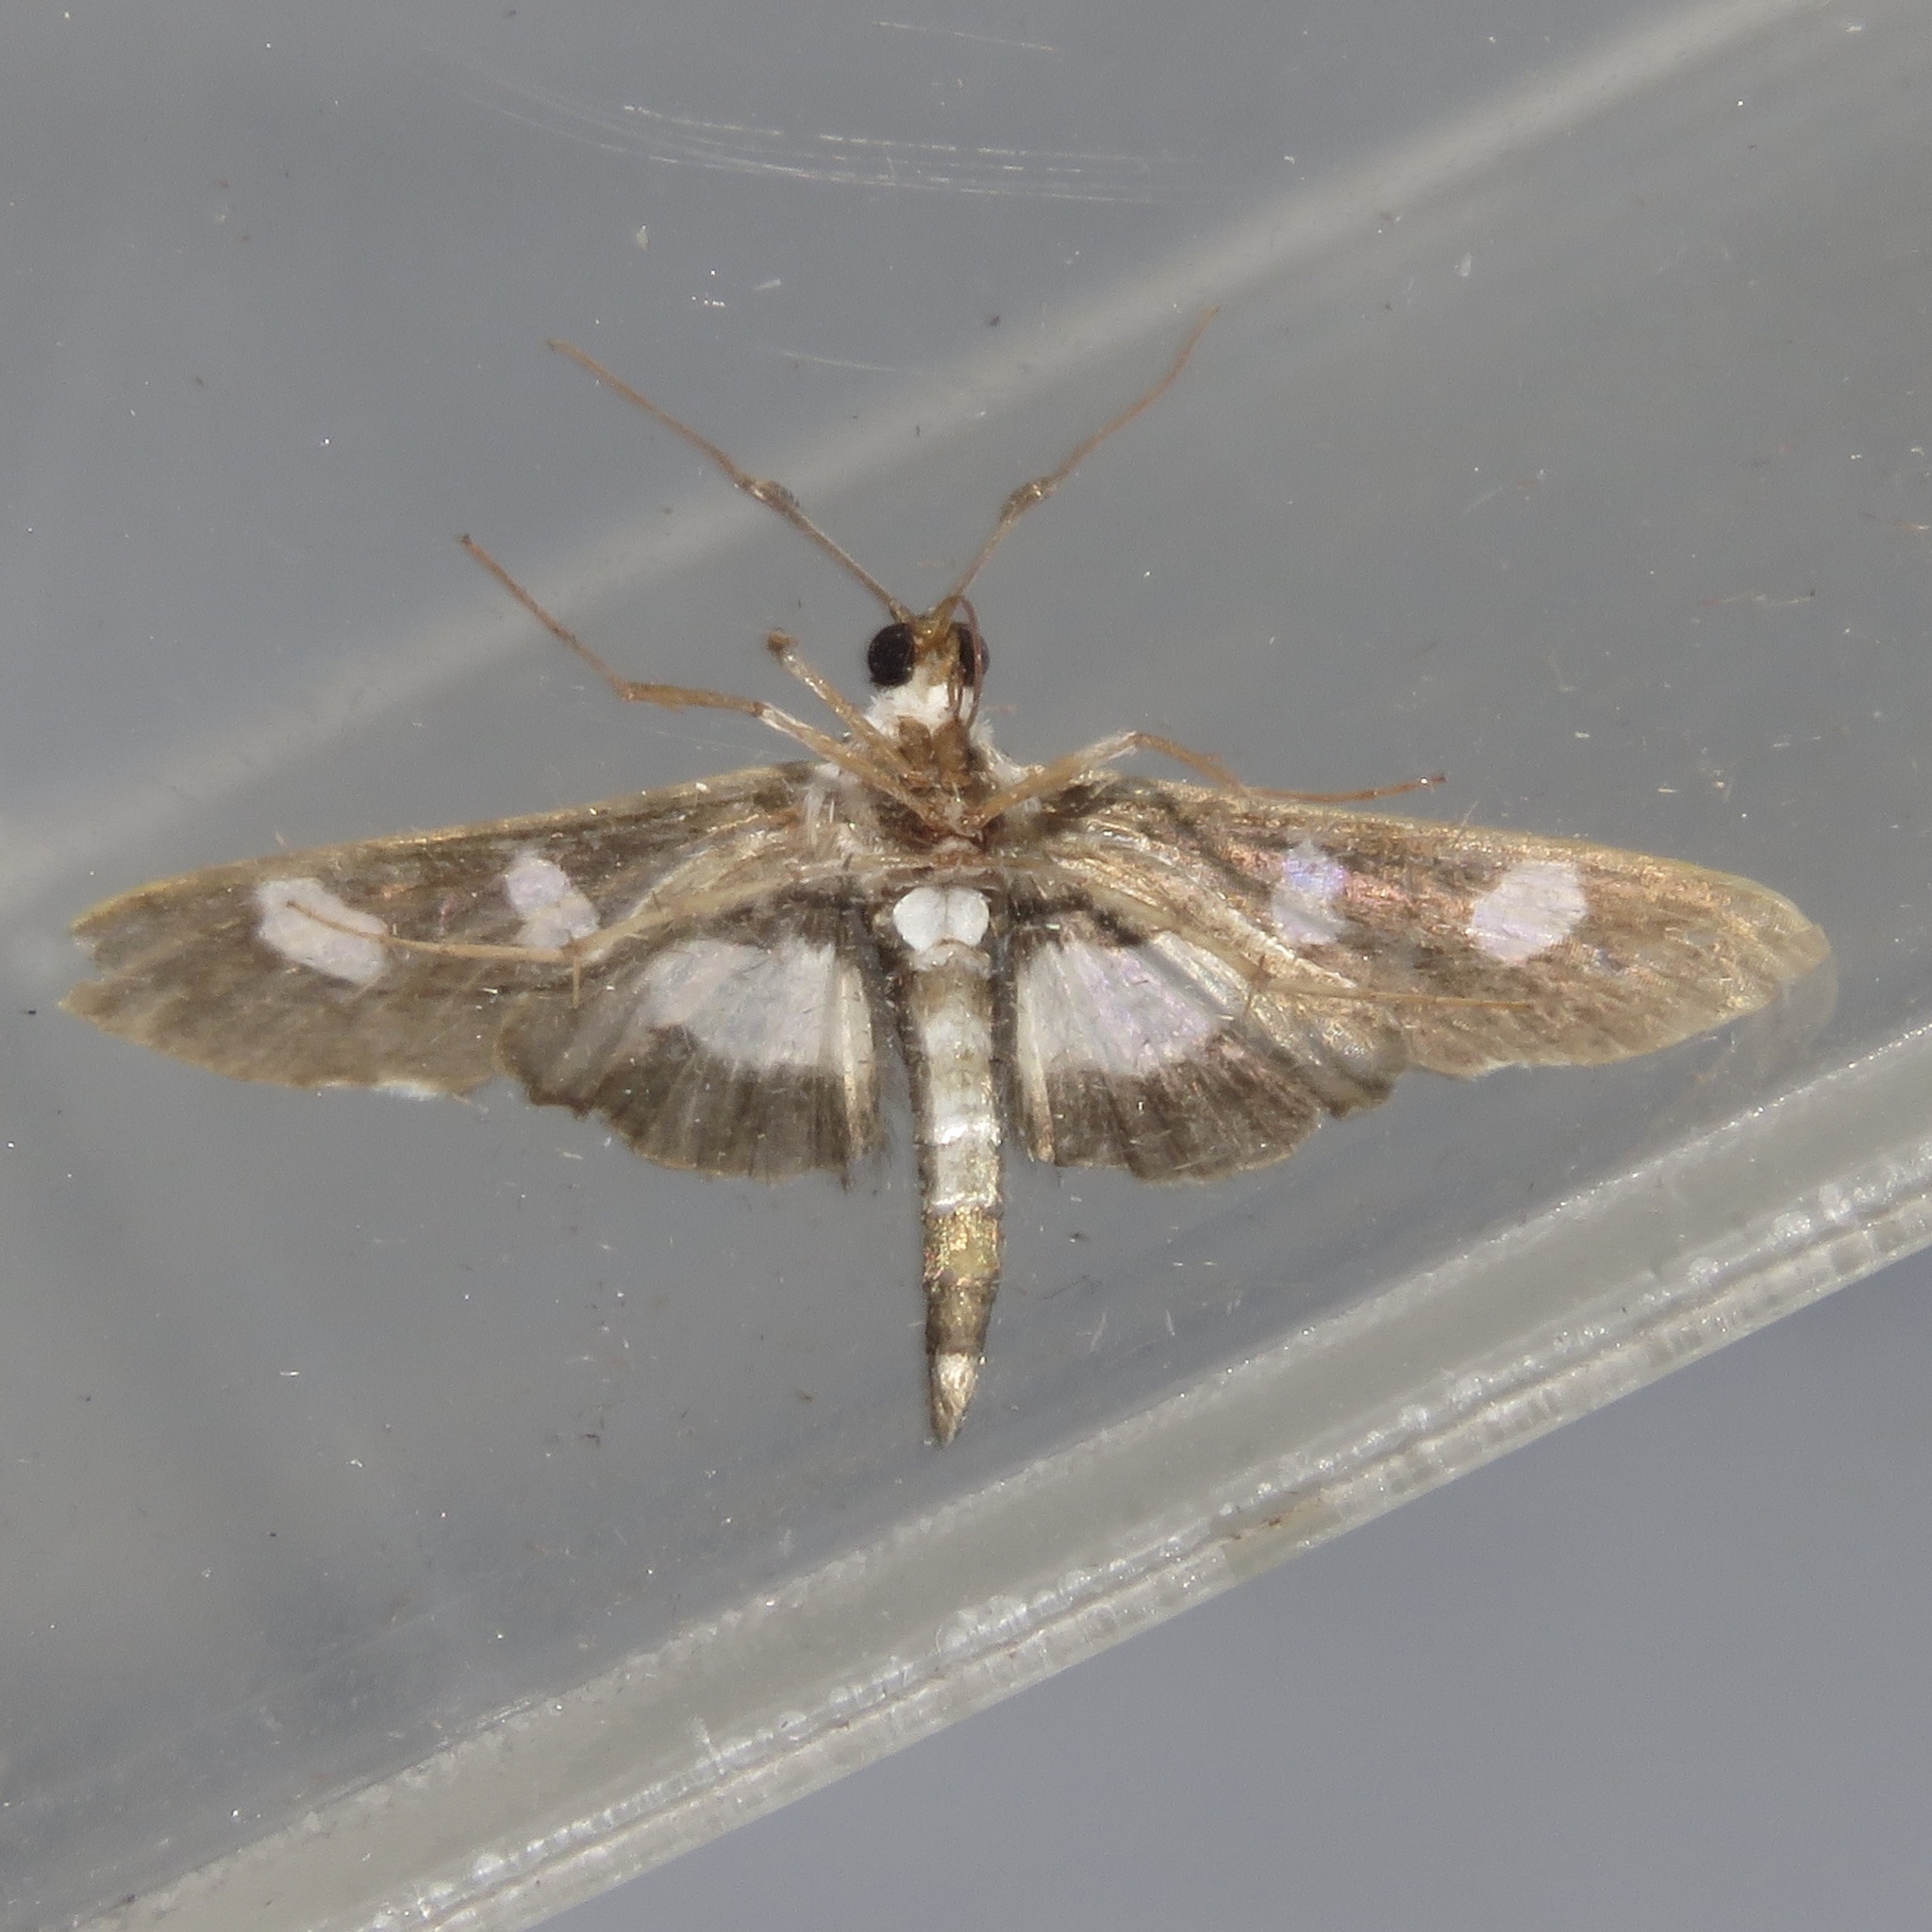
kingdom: Animalia
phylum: Arthropoda
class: Insecta
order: Lepidoptera
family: Crambidae
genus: Desmia
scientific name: Desmia funeralis
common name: Grape leaf folder moth
